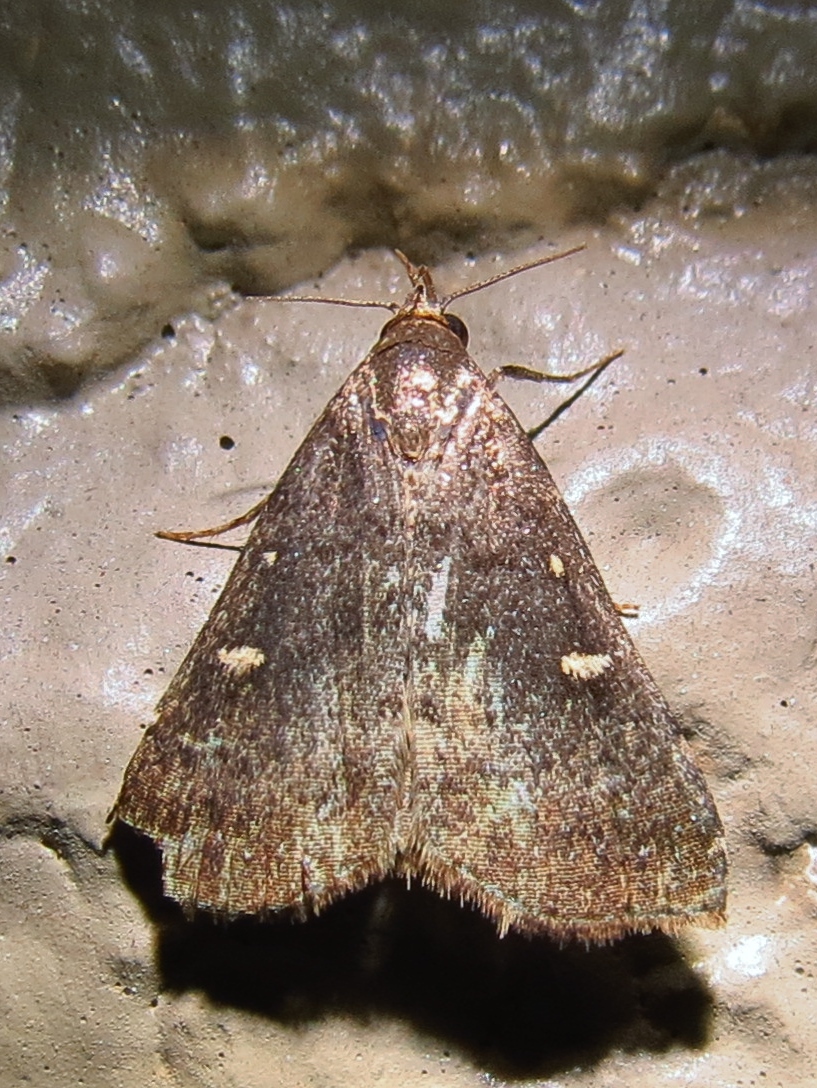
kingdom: Animalia
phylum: Arthropoda
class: Insecta
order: Lepidoptera
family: Erebidae
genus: Tetanolita
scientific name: Tetanolita mynesalis
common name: Smoky tetanolita moth
